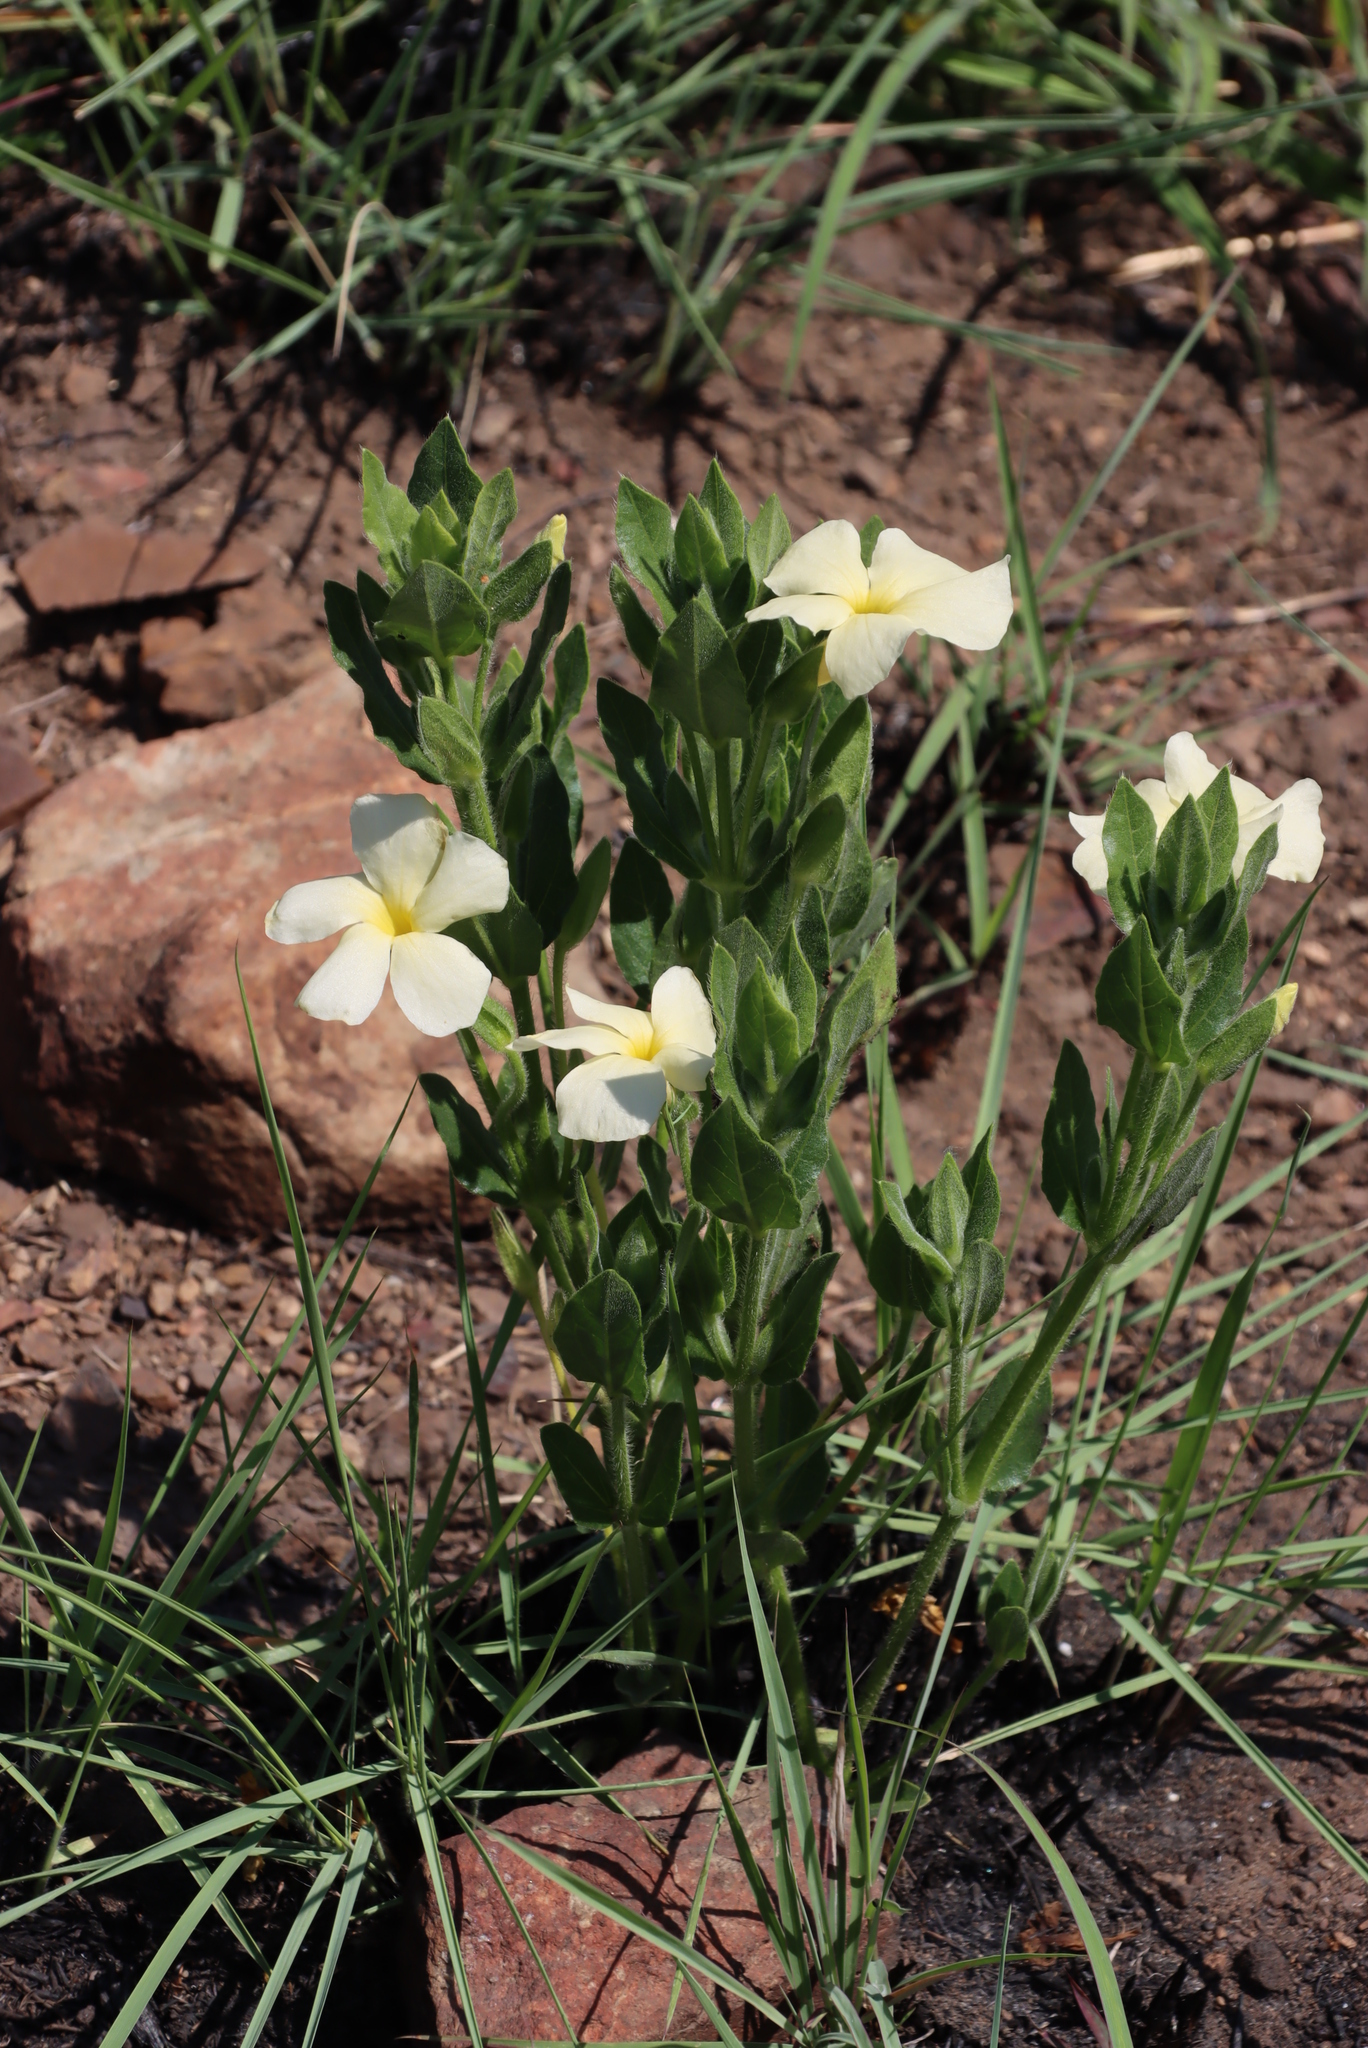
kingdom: Plantae
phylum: Tracheophyta
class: Magnoliopsida
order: Lamiales
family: Acanthaceae
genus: Thunbergia
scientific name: Thunbergia atriplicifolia
